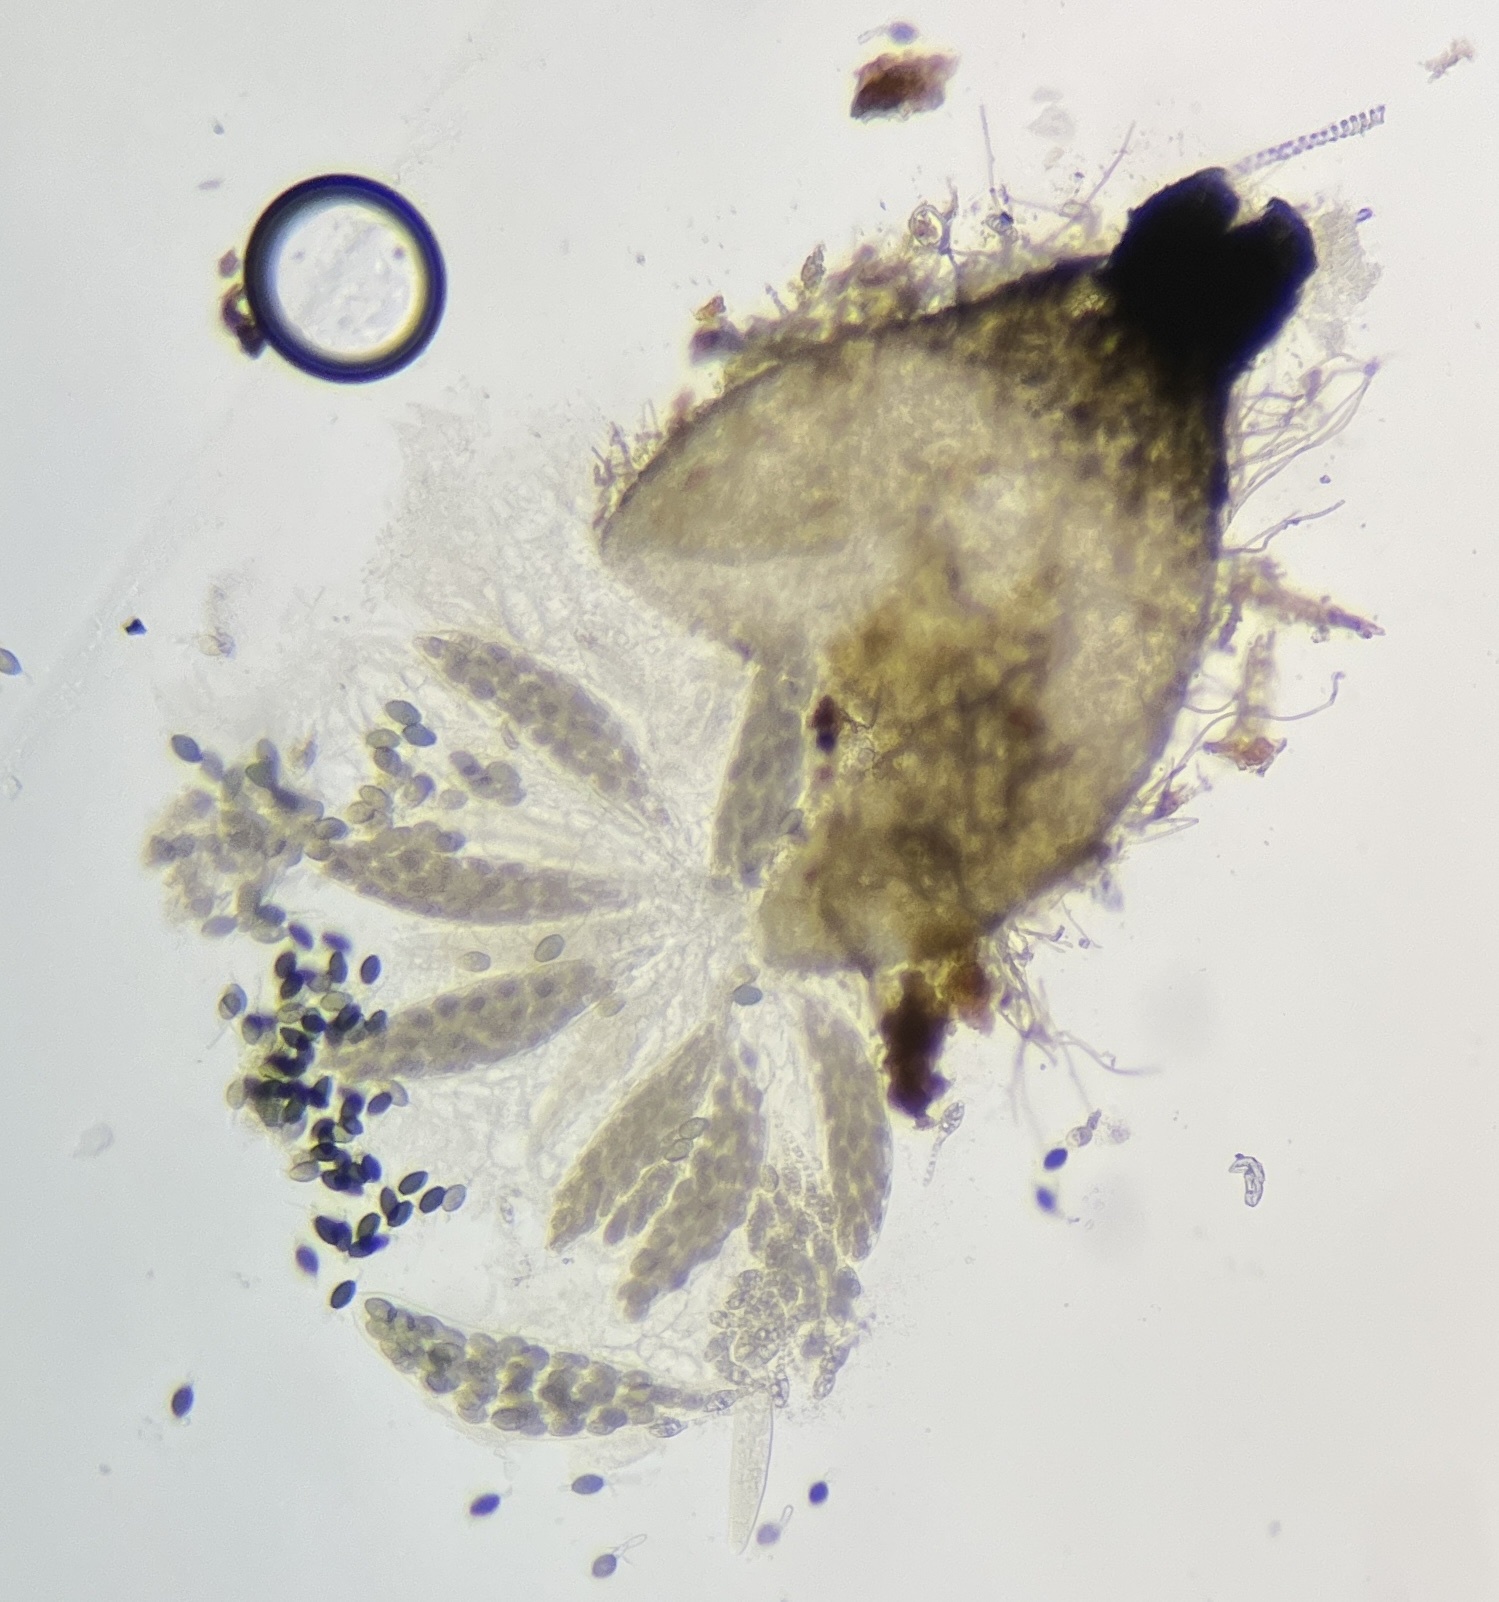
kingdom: Fungi
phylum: Ascomycota
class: Sordariomycetes
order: Sordariales
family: Podosporaceae
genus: Podospora
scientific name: Podospora collapsa
